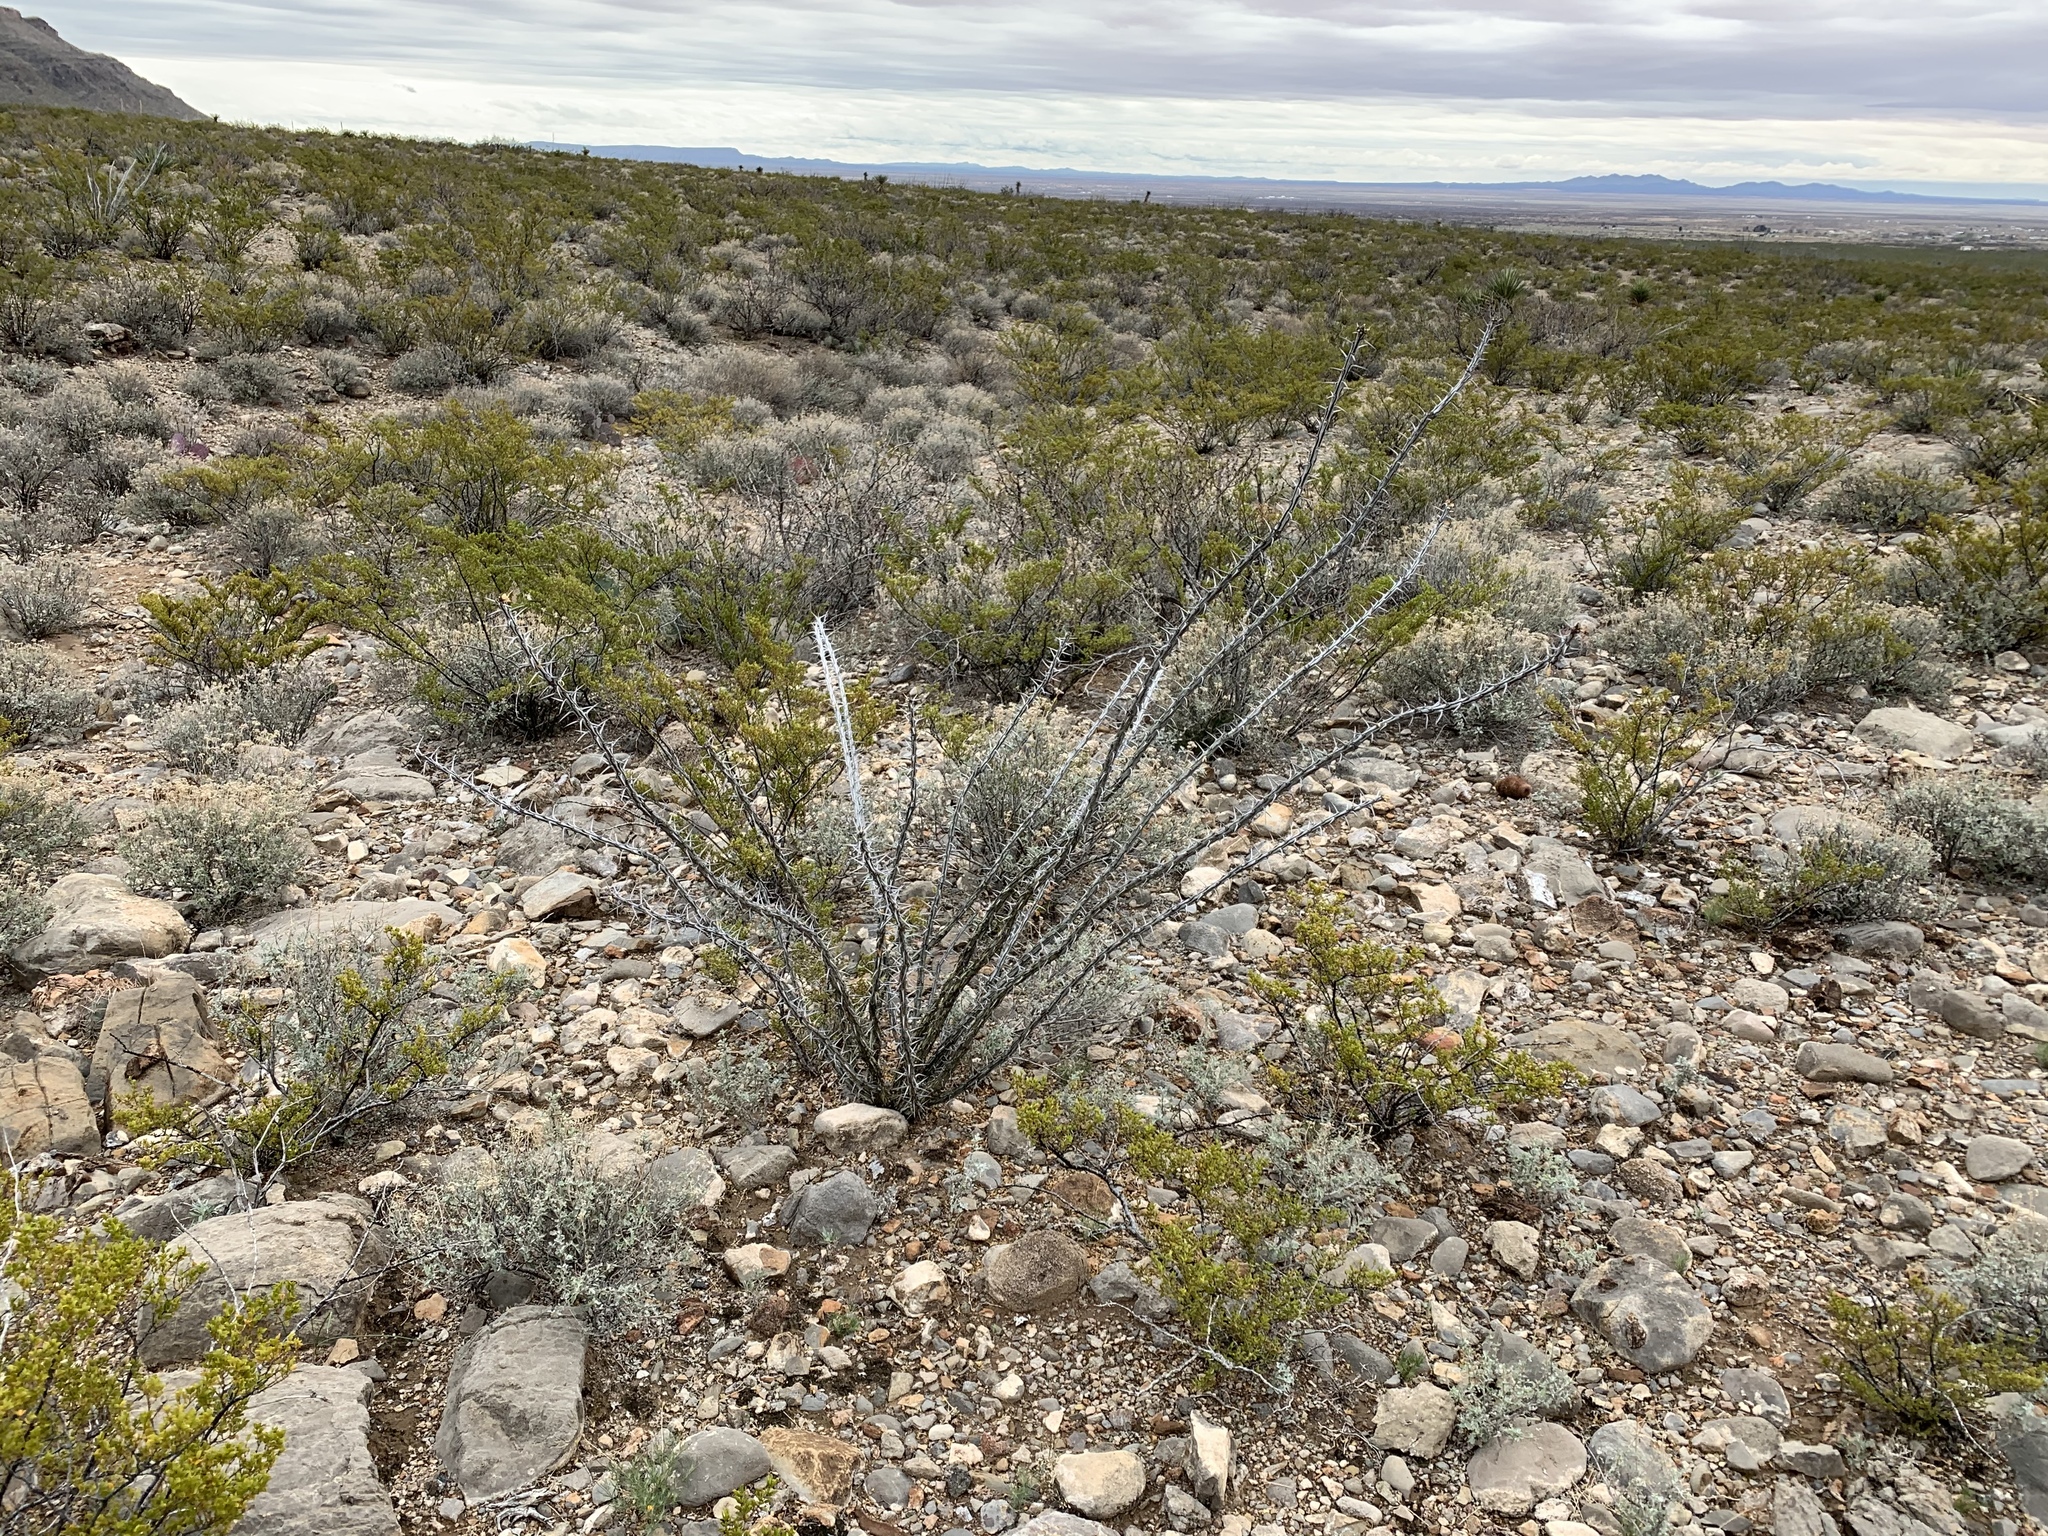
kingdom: Plantae
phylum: Tracheophyta
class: Magnoliopsida
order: Ericales
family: Fouquieriaceae
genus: Fouquieria
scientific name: Fouquieria splendens
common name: Vine-cactus
